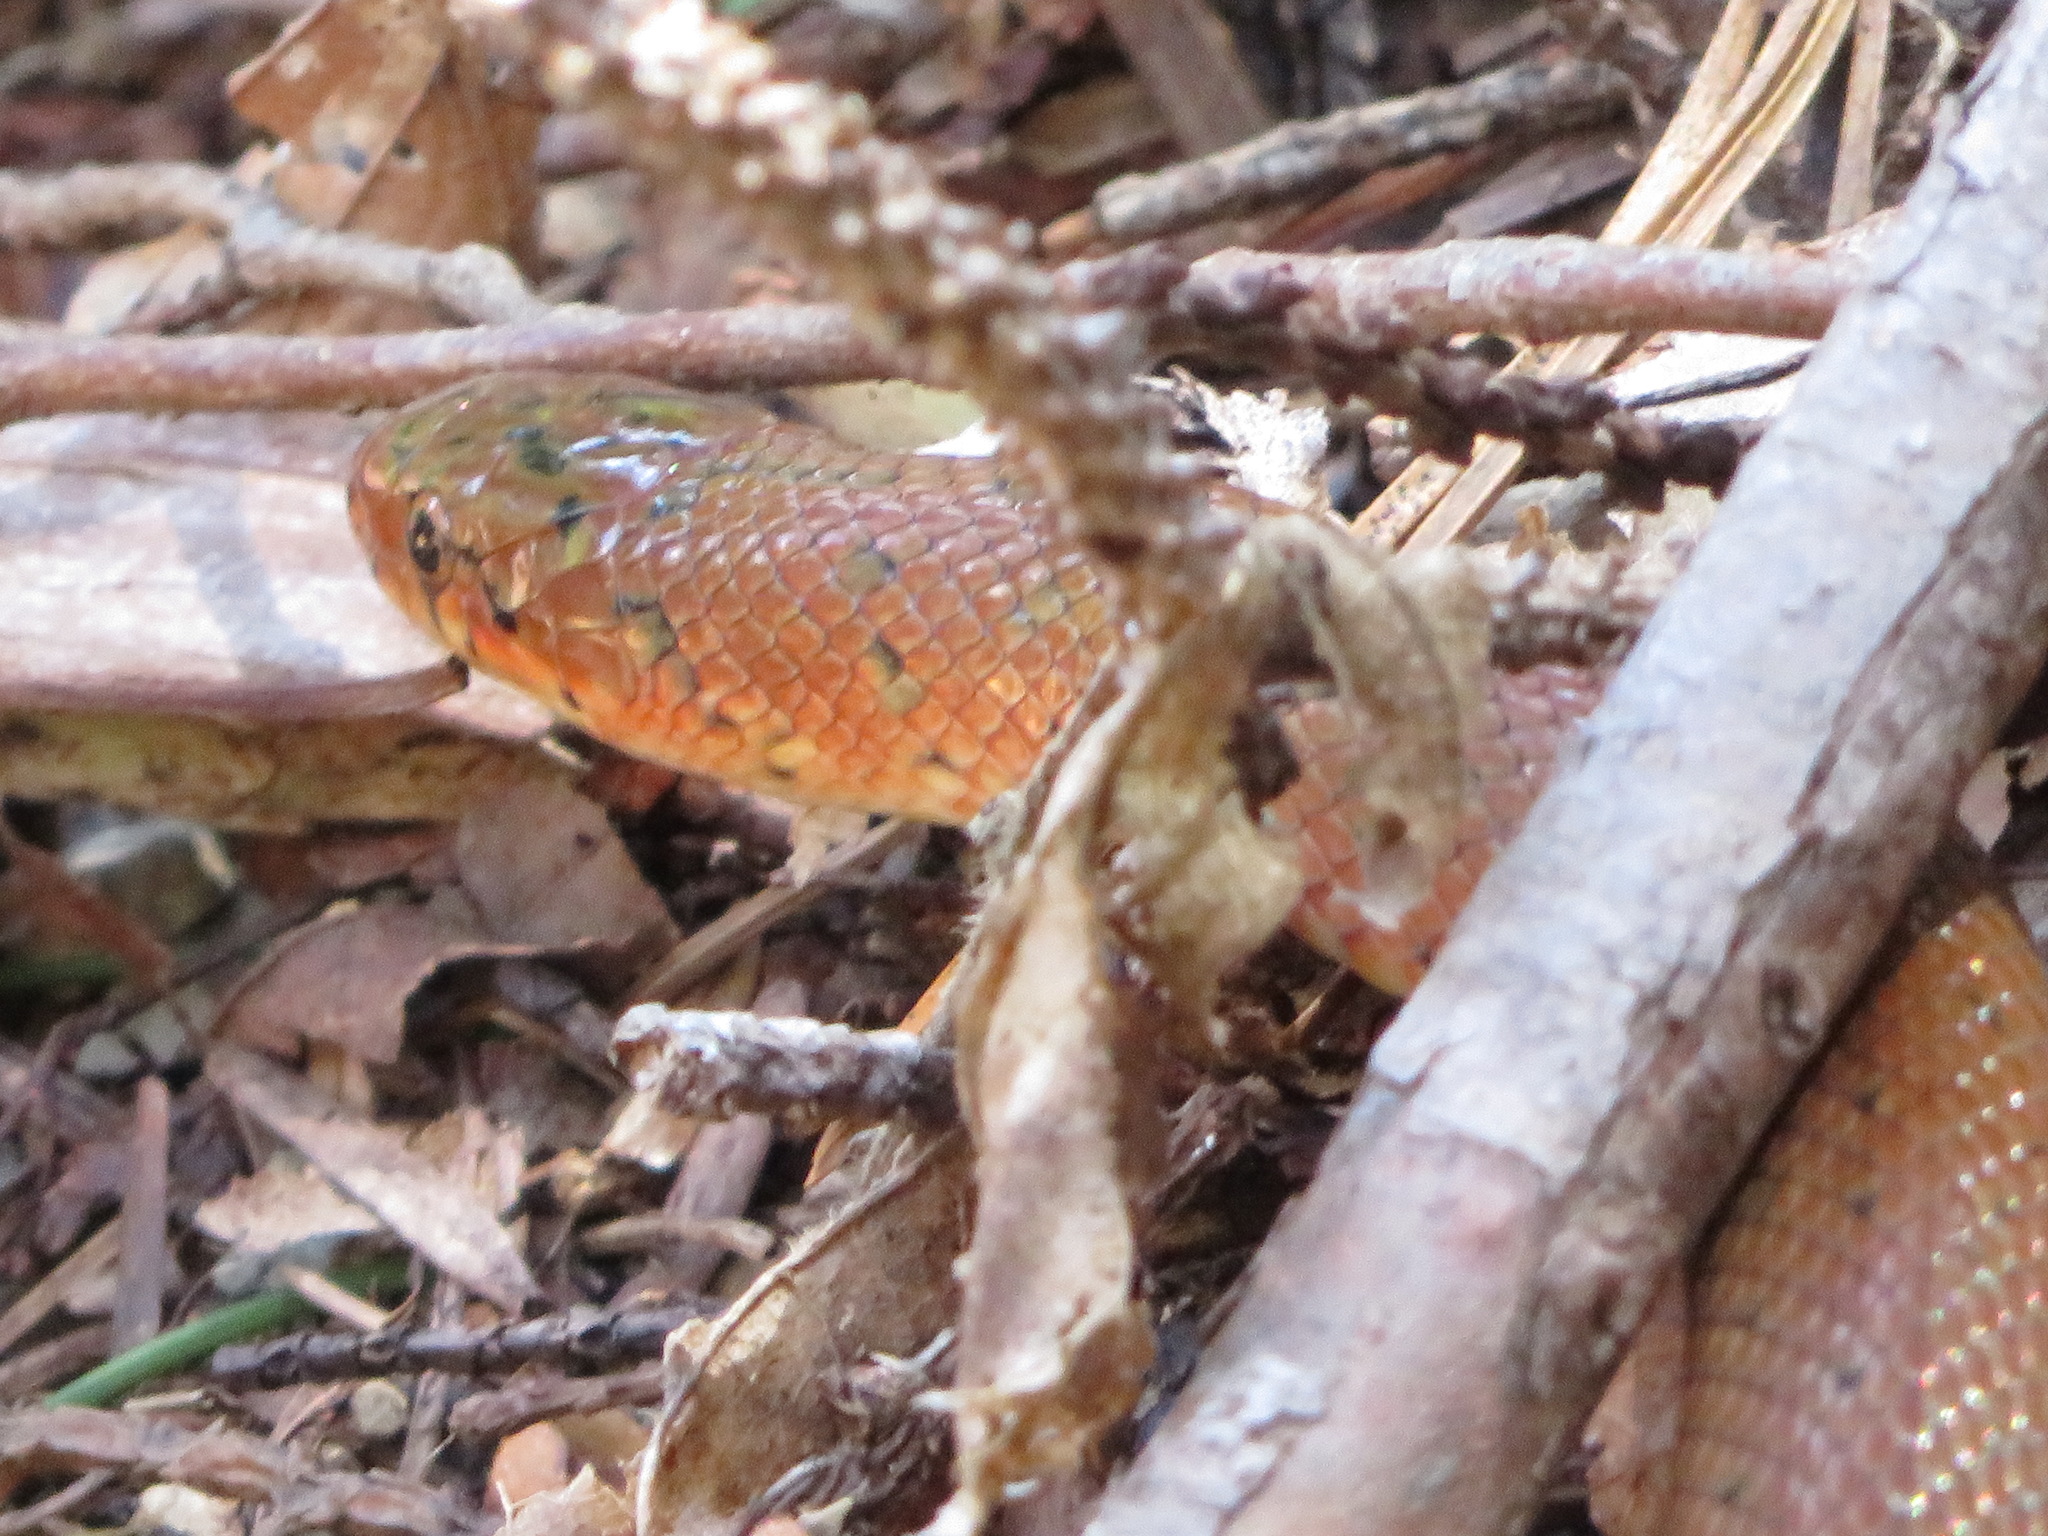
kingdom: Animalia
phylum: Chordata
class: Squamata
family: Colubridae
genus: Euprepiophis
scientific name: Euprepiophis conspicillata
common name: Burrowing ratsnake
